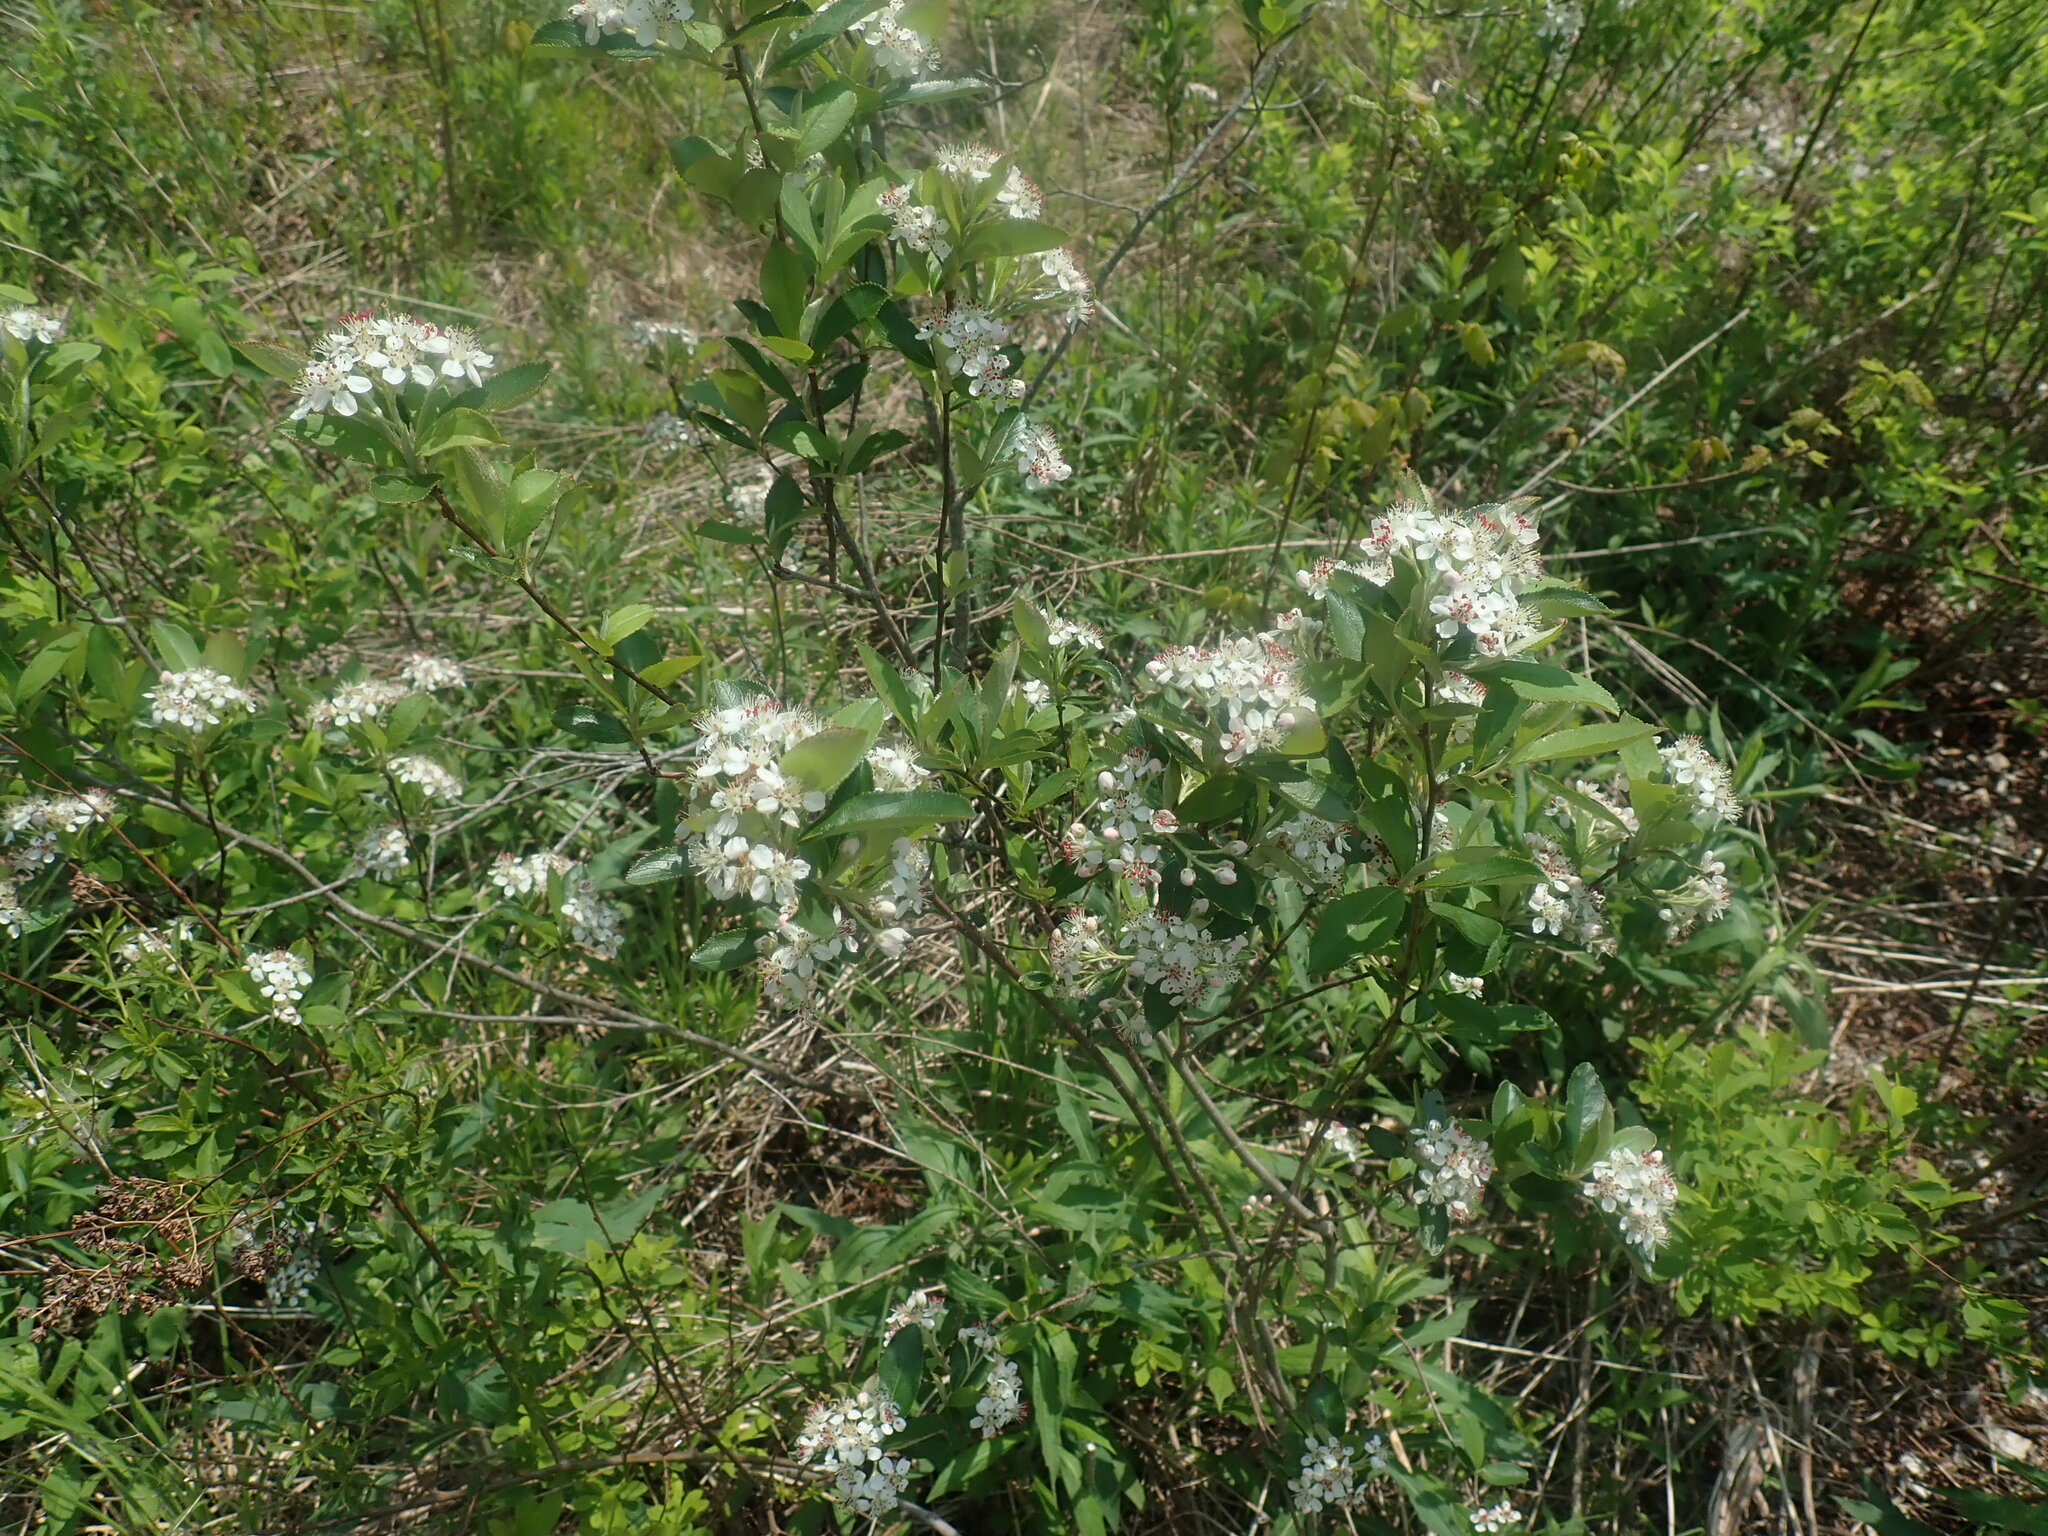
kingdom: Plantae
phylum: Tracheophyta
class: Magnoliopsida
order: Rosales
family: Rosaceae
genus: Aronia
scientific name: Aronia
